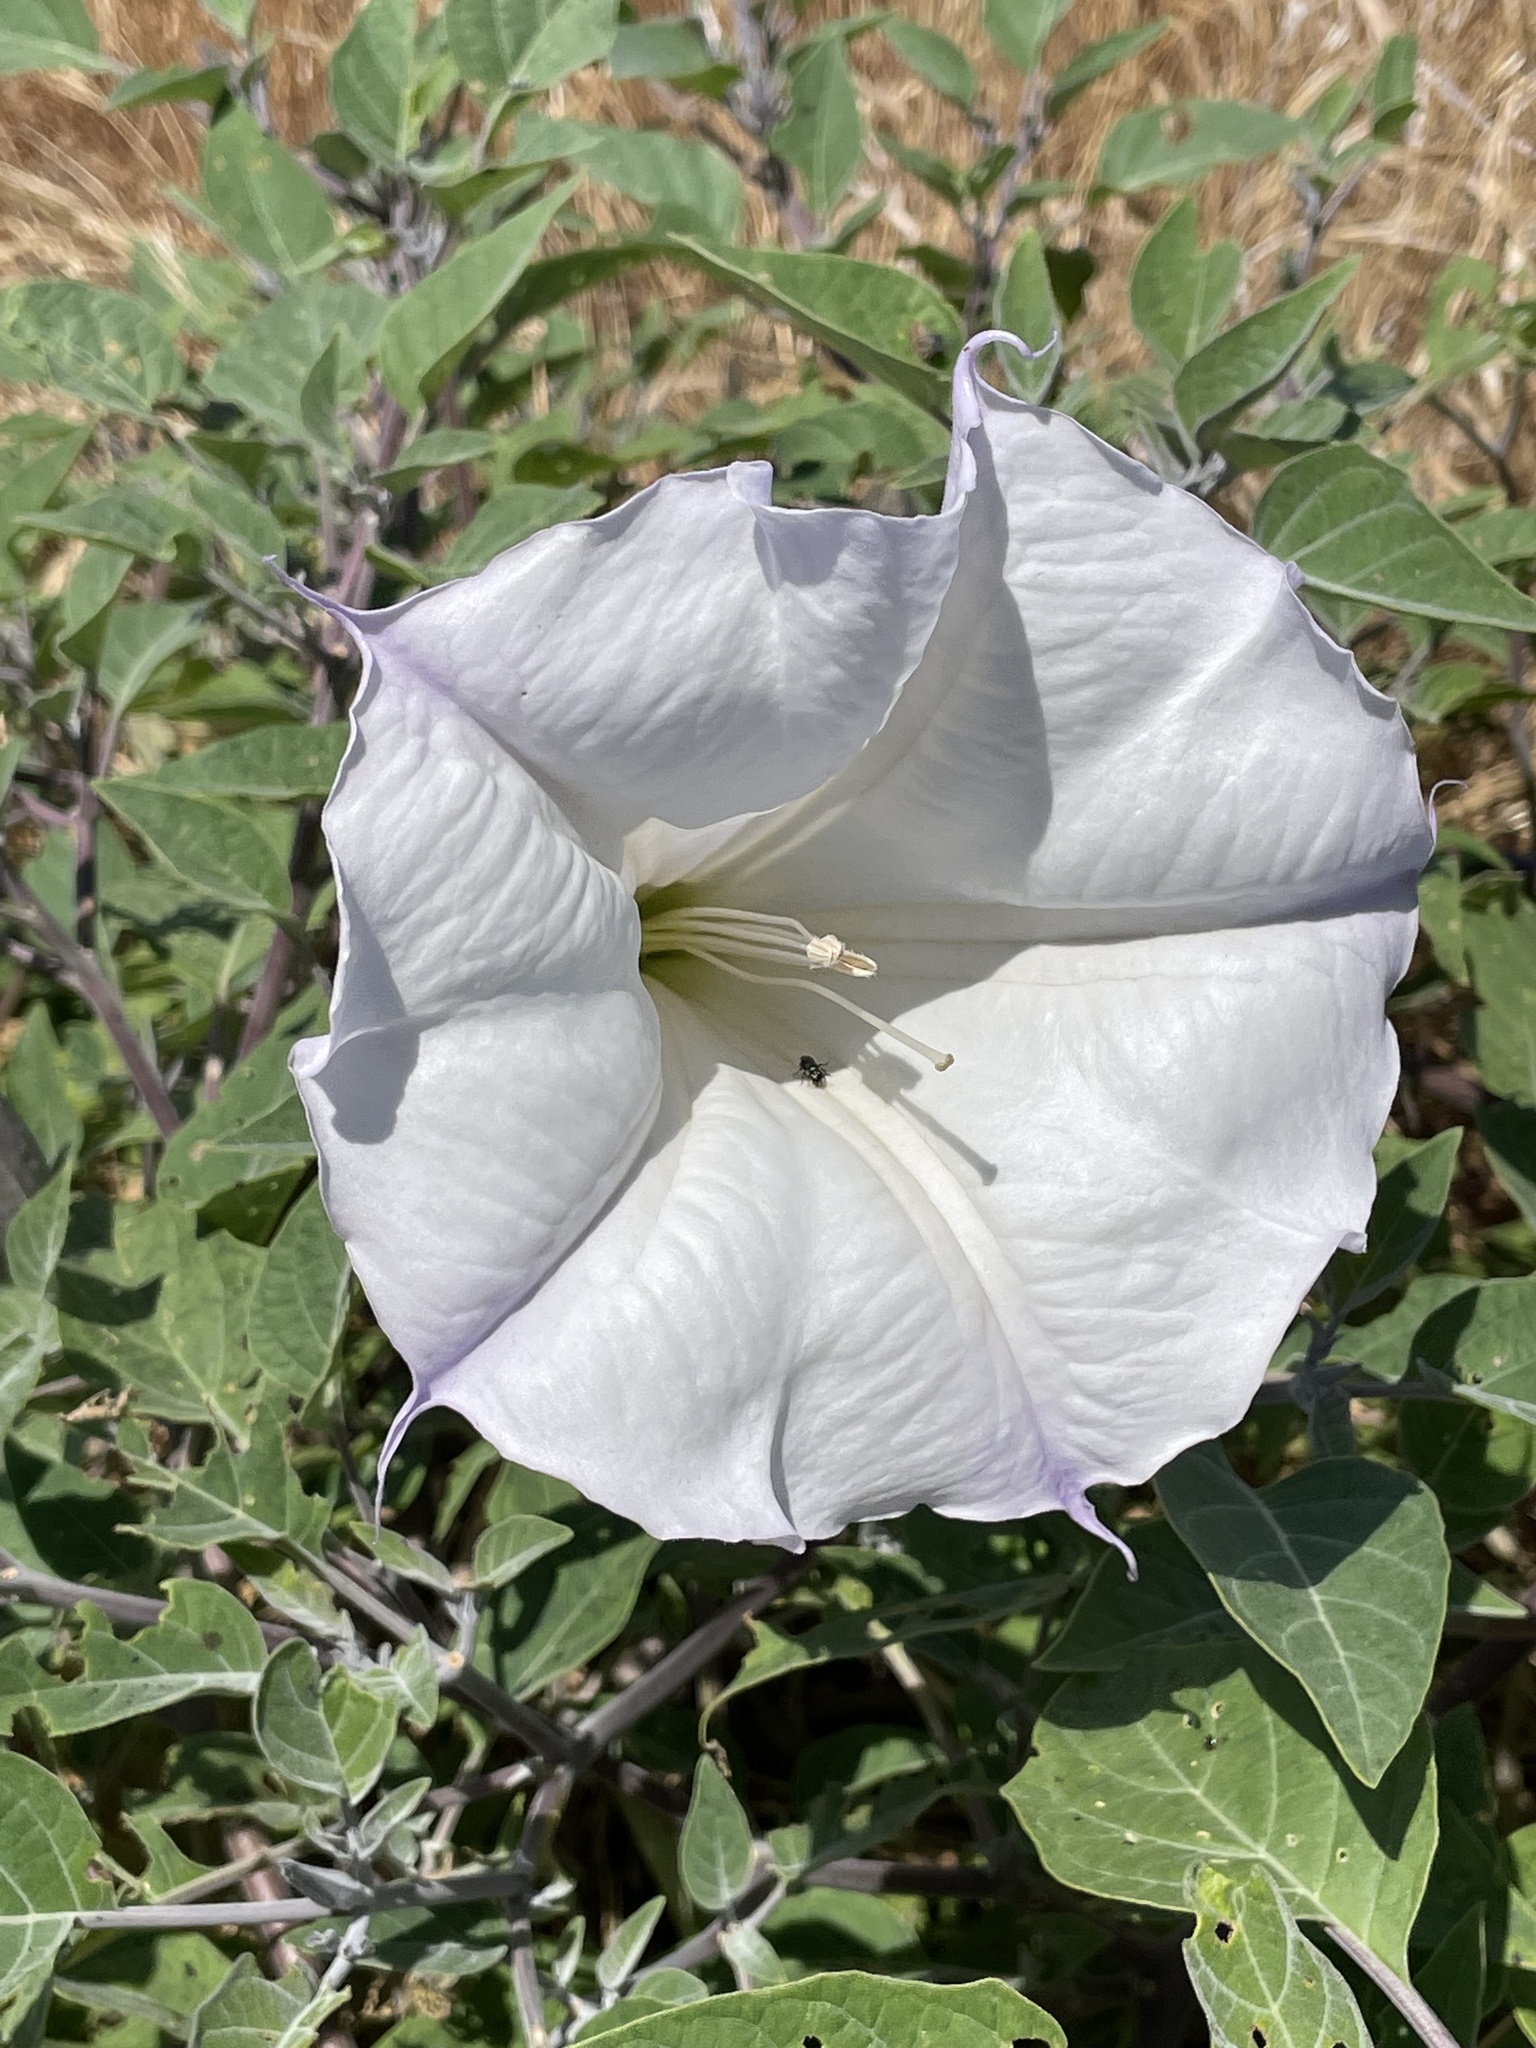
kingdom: Plantae
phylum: Tracheophyta
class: Magnoliopsida
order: Solanales
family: Solanaceae
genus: Datura
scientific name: Datura wrightii
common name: Sacred thorn-apple
